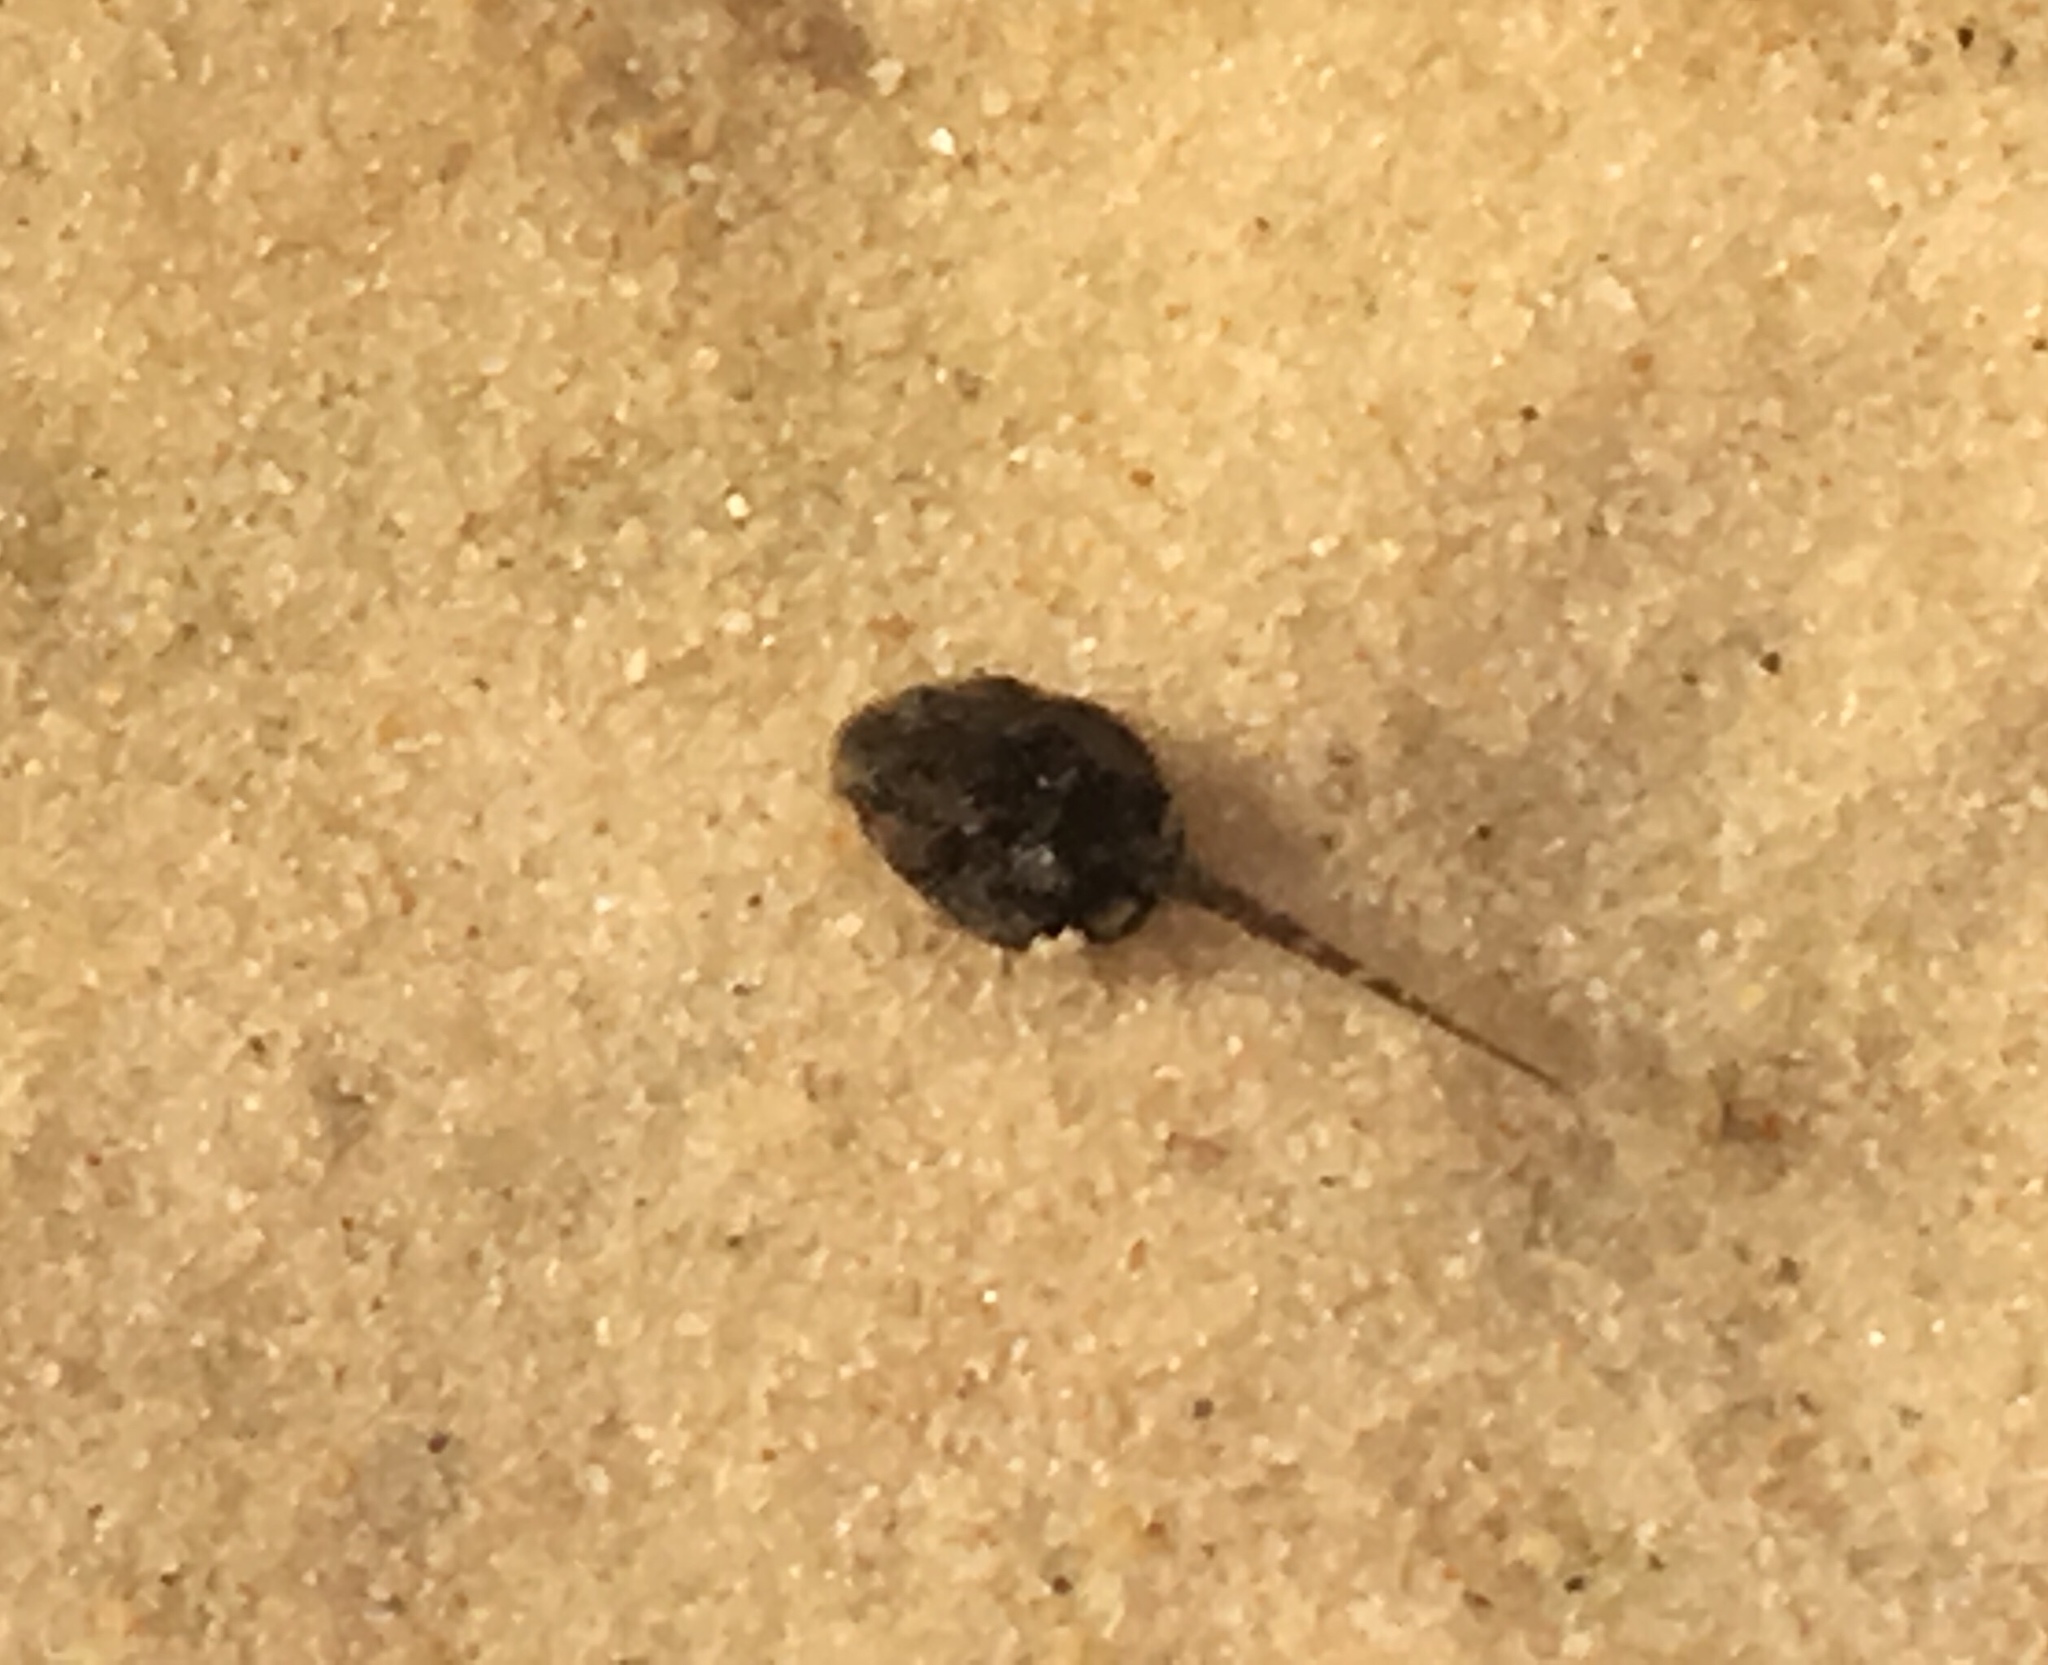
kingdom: Animalia
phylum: Chordata
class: Amphibia
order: Anura
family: Bufonidae
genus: Rhinella
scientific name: Rhinella marina
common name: Cane toad
